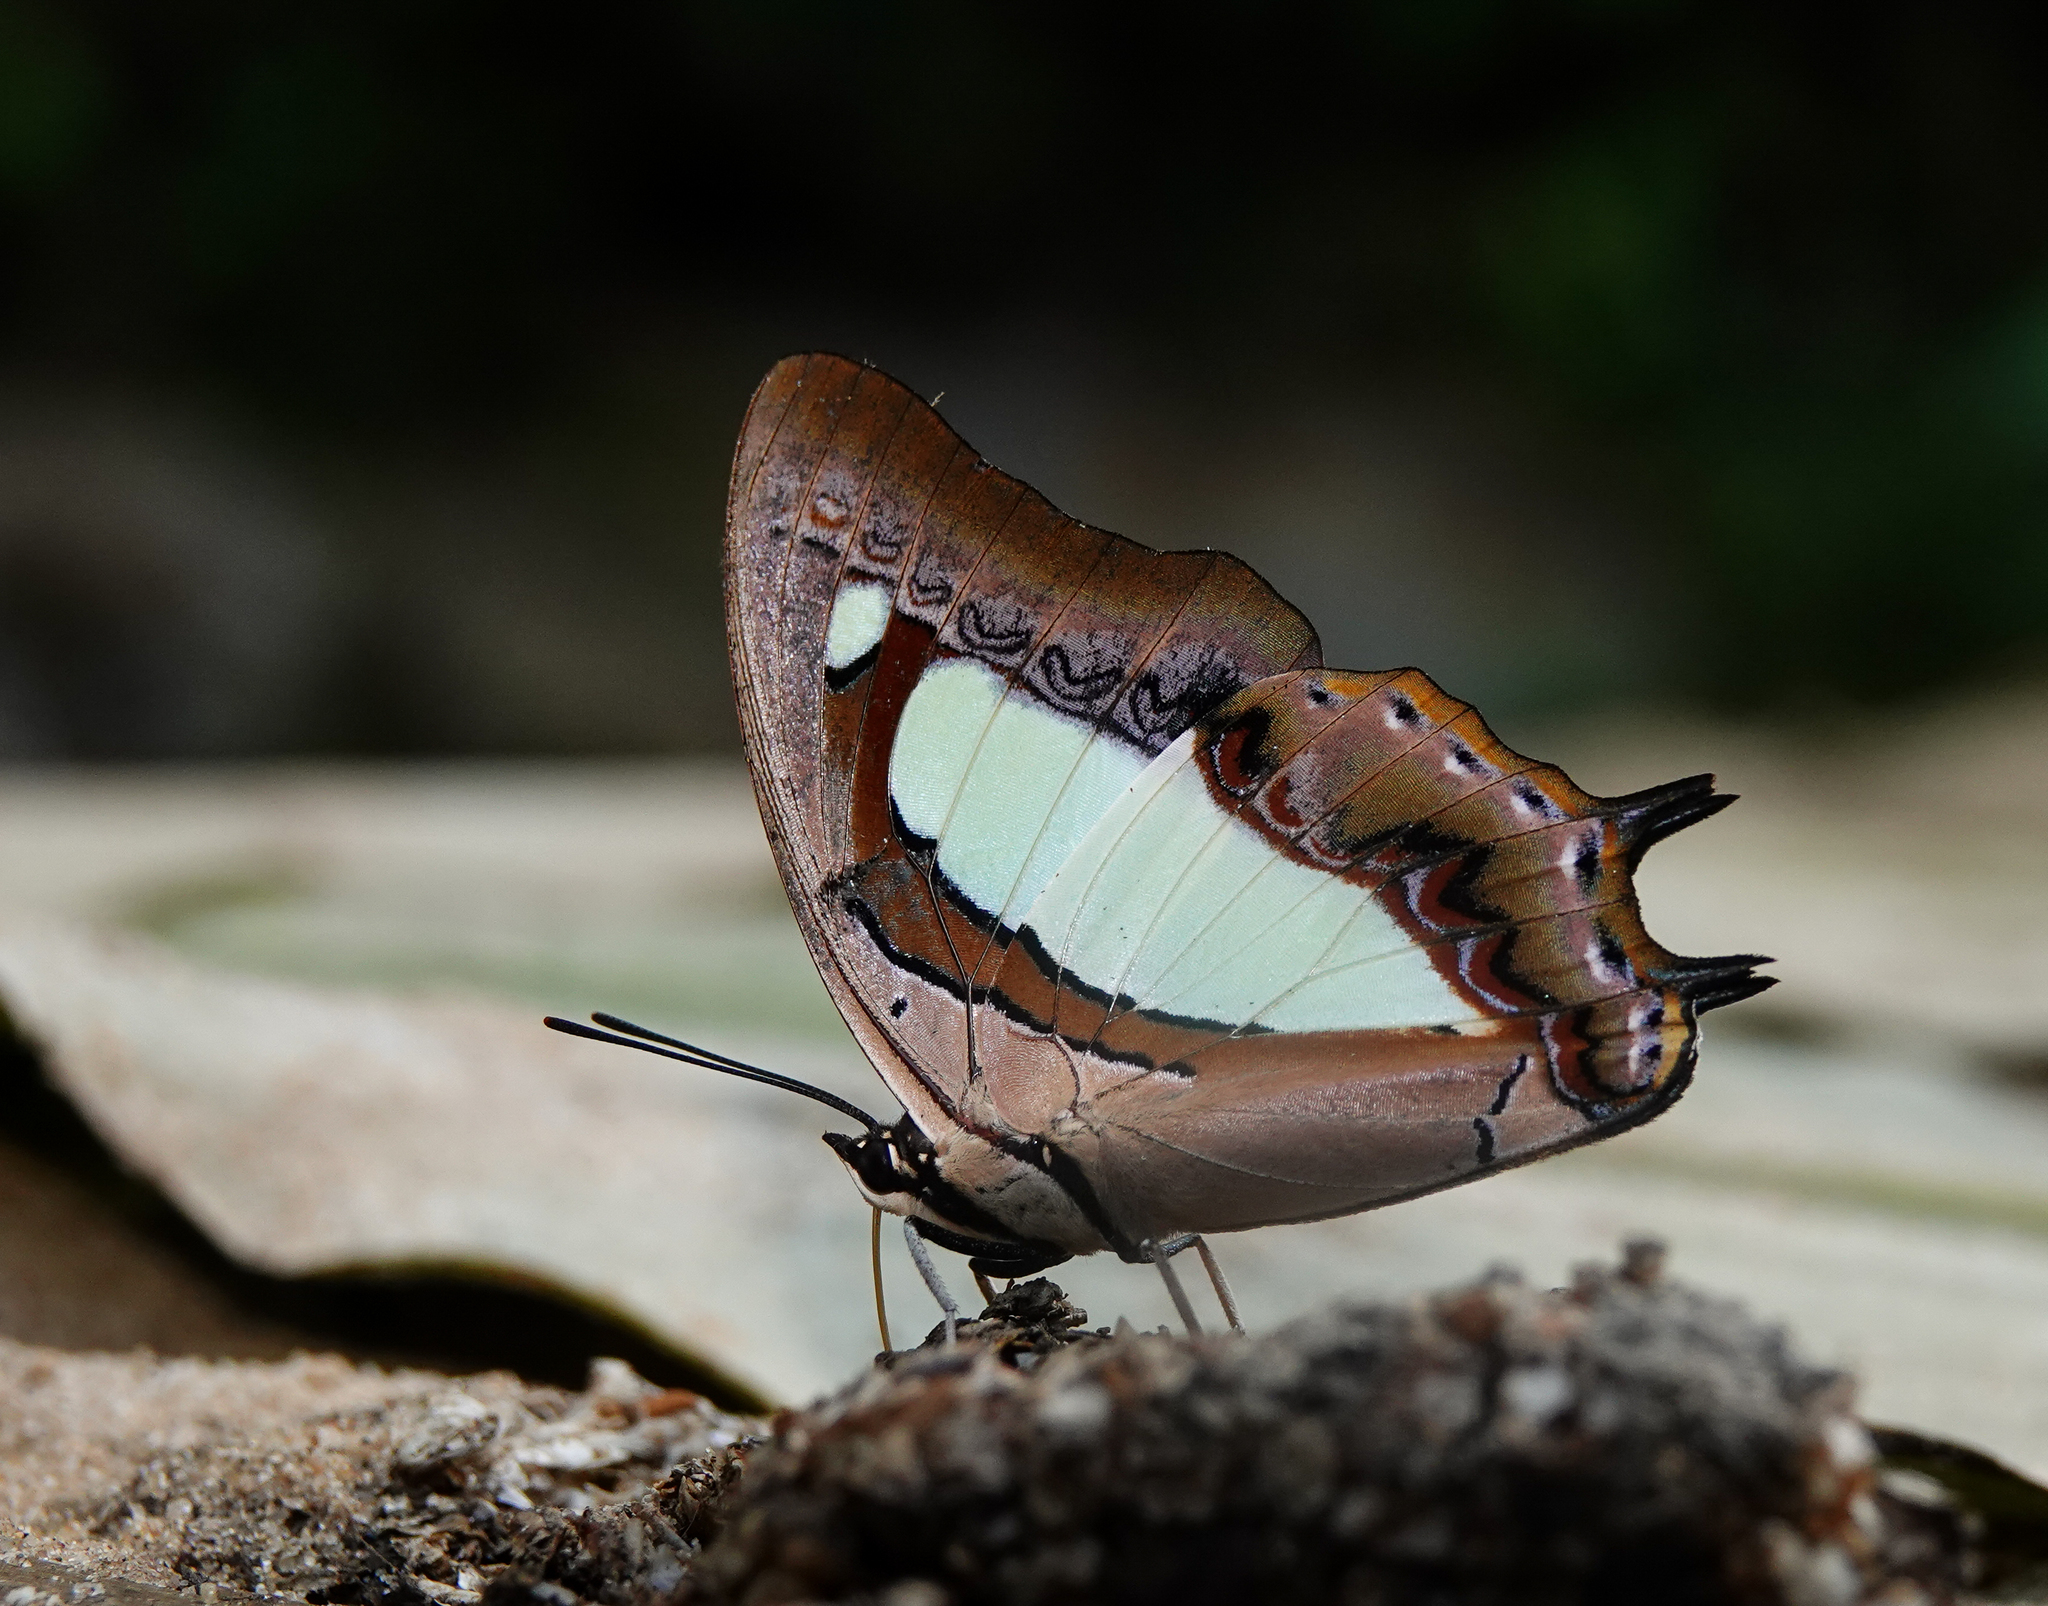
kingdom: Animalia
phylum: Arthropoda
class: Insecta
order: Lepidoptera
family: Nymphalidae
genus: Polyura
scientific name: Polyura athamas
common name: Common nawab
